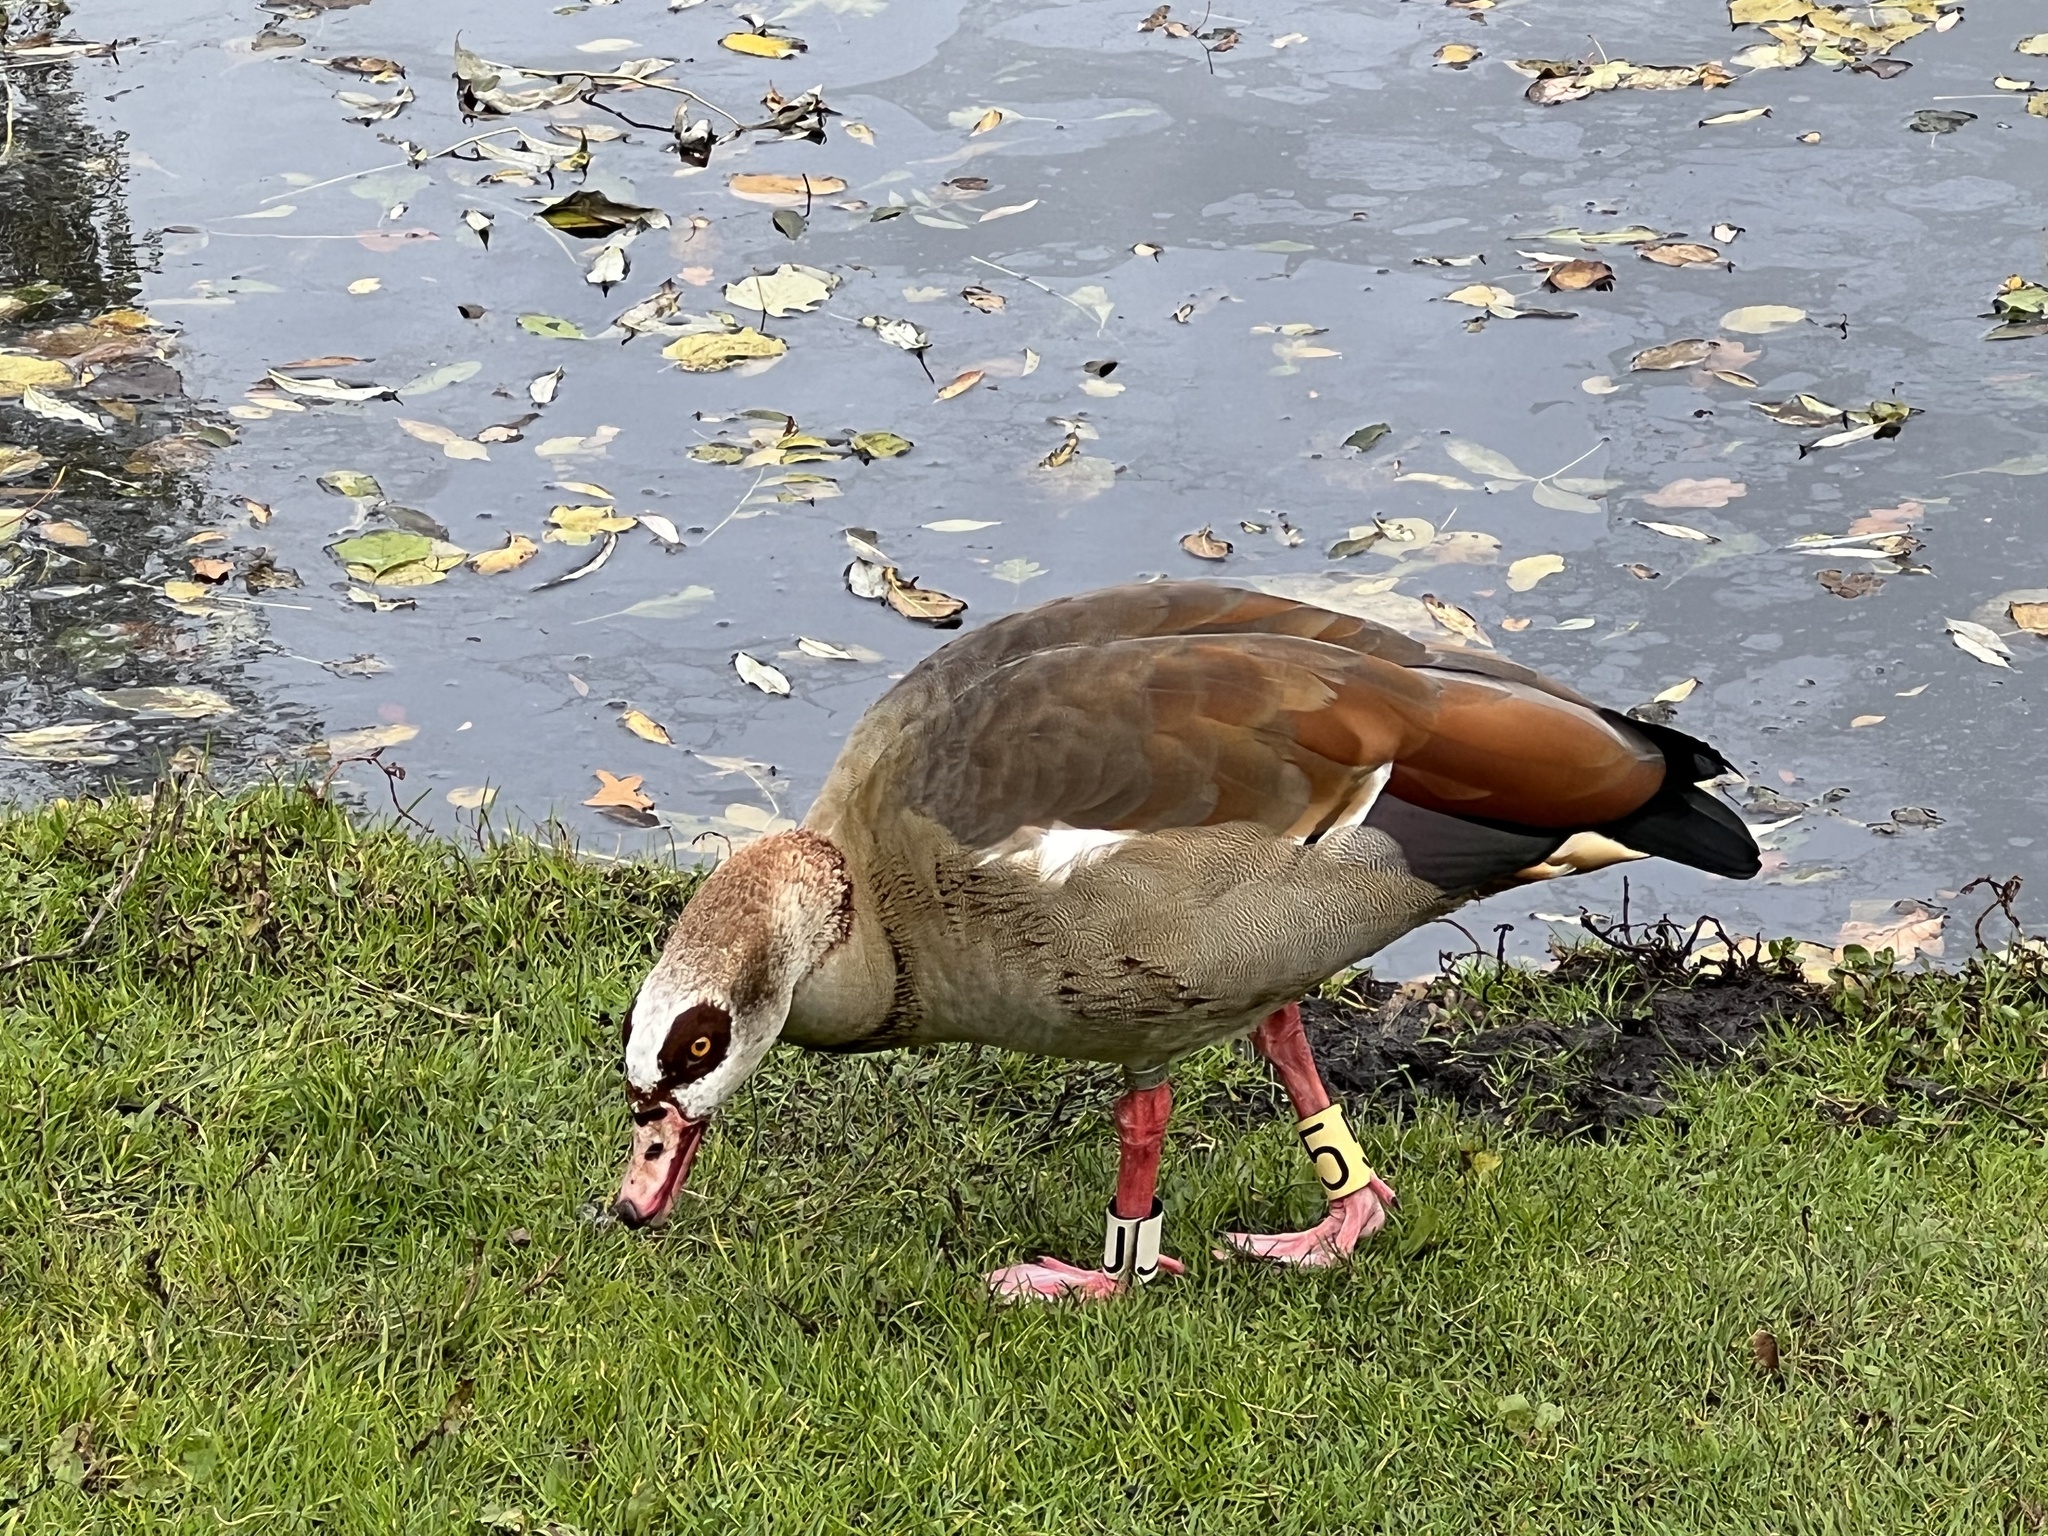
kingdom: Animalia
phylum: Chordata
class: Aves
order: Anseriformes
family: Anatidae
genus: Alopochen
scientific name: Alopochen aegyptiaca
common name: Egyptian goose
